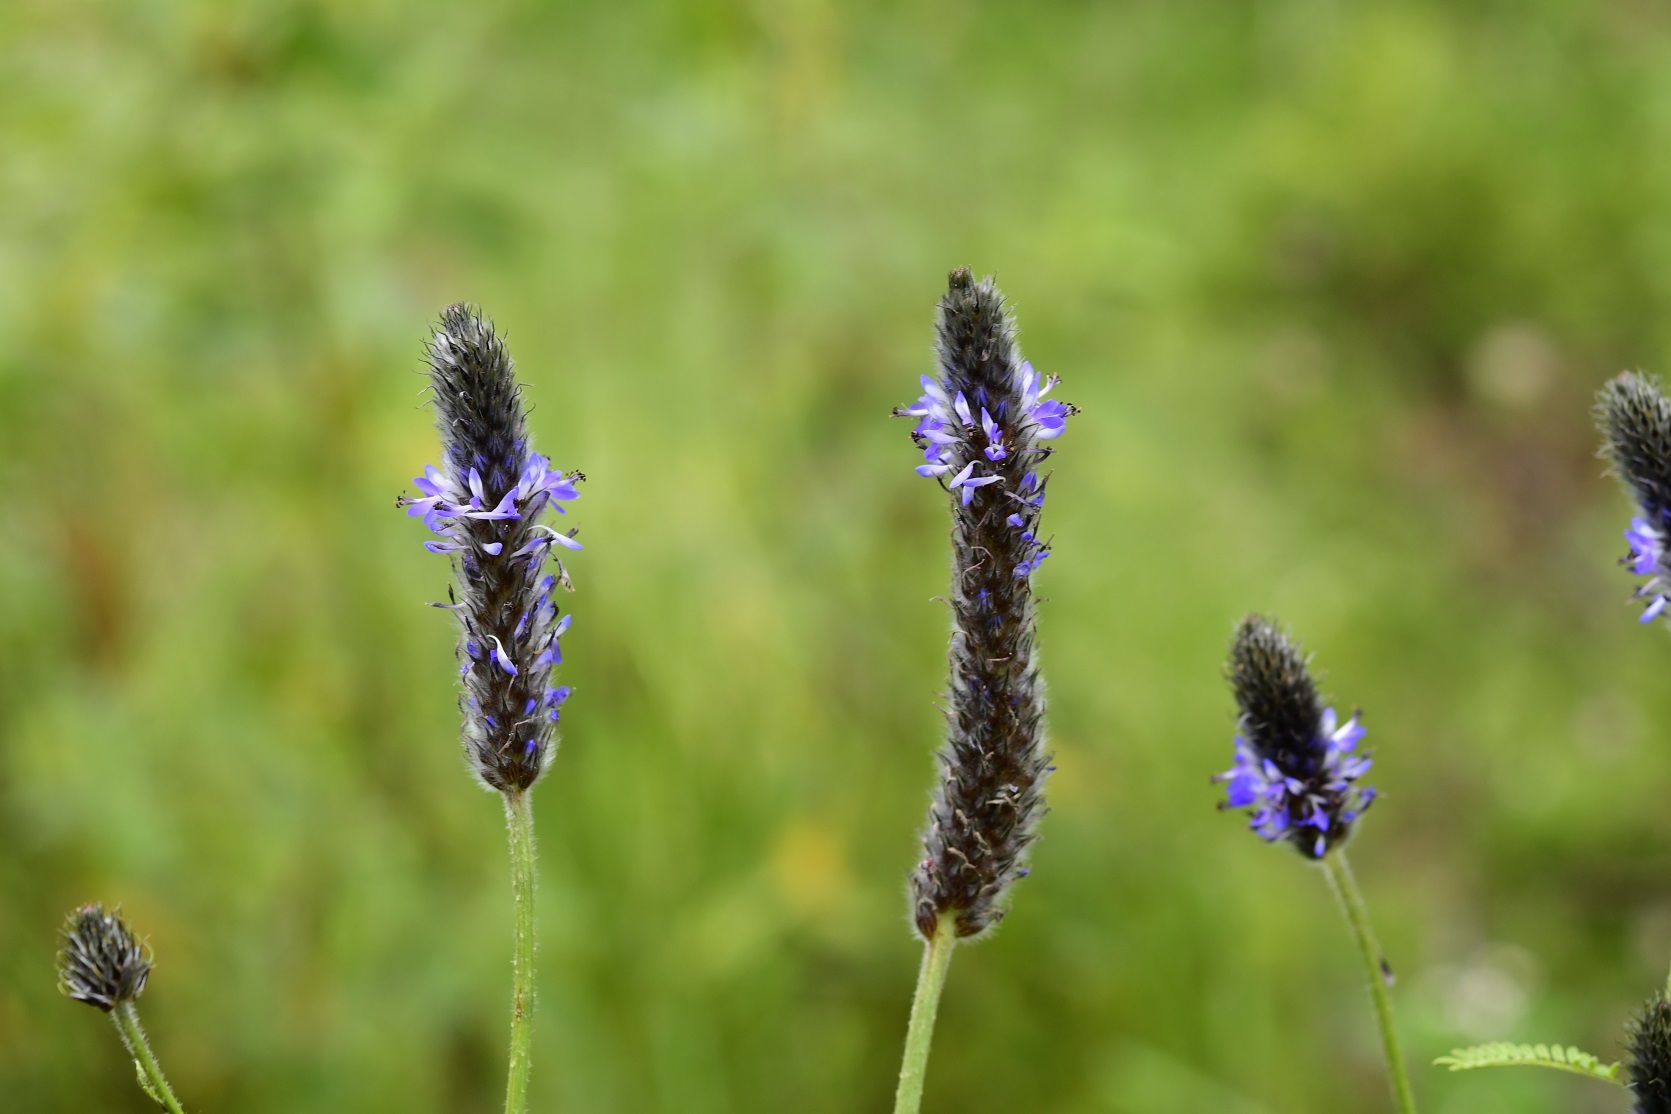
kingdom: Plantae
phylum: Tracheophyta
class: Magnoliopsida
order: Fabales
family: Fabaceae
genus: Dalea
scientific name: Dalea leporina
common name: Foxtail dalea
